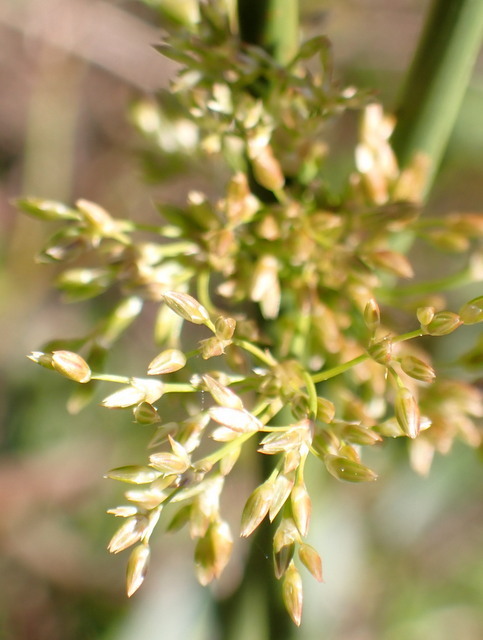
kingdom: Plantae
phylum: Tracheophyta
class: Liliopsida
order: Poales
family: Juncaceae
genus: Juncus
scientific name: Juncus effusus
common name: Soft rush
